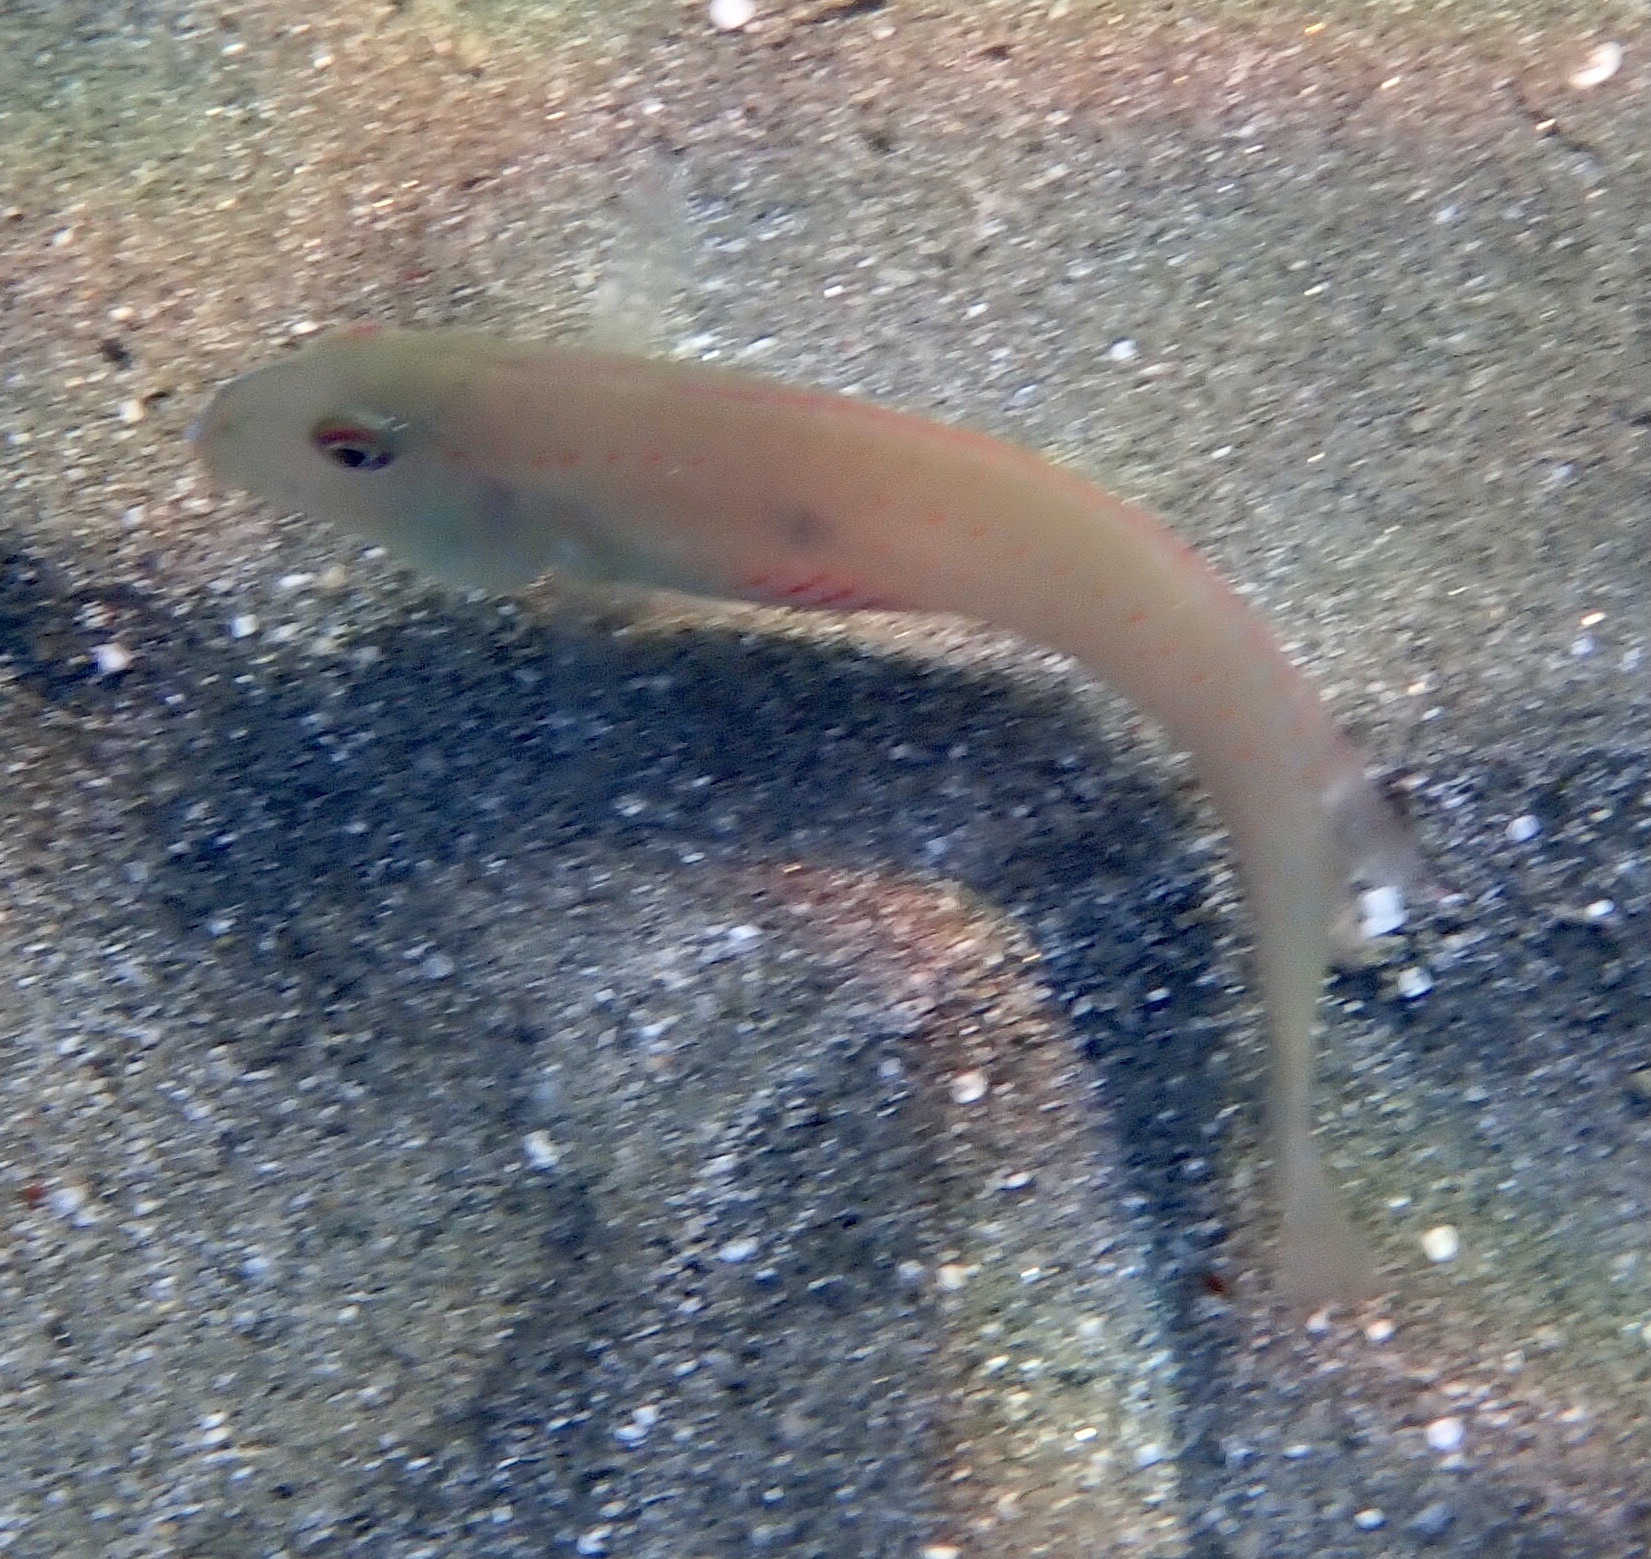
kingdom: Animalia
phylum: Chordata
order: Perciformes
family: Labridae
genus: Iniistius
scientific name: Iniistius pentadactylus
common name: Fivefinger razorfish
